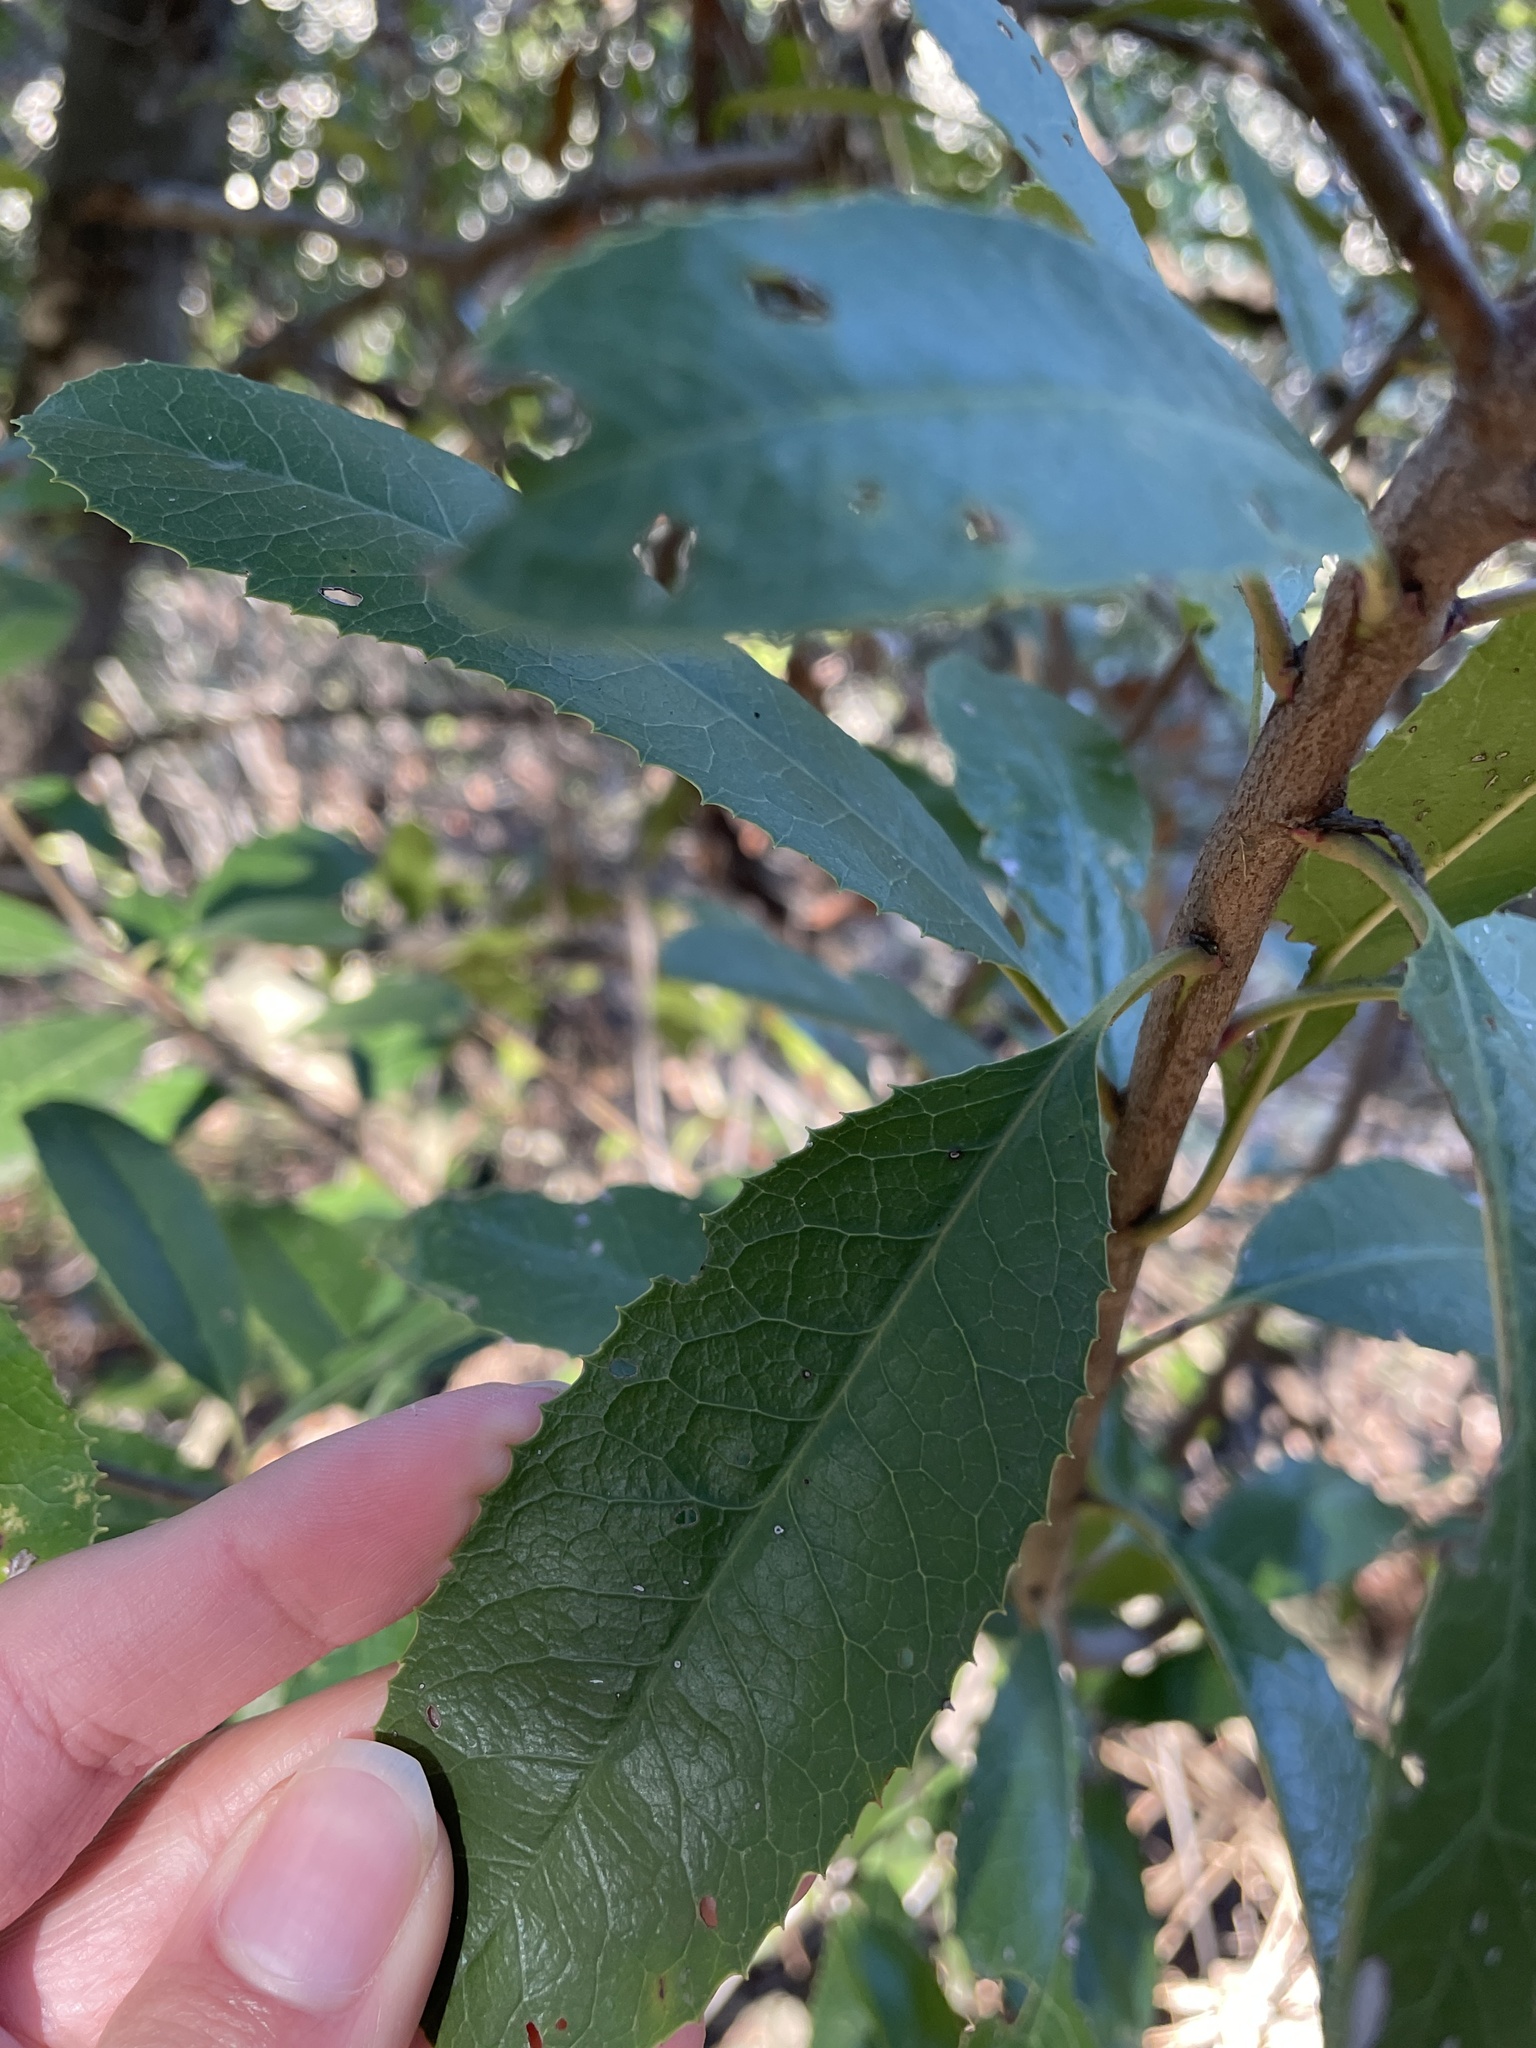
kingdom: Plantae
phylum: Tracheophyta
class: Magnoliopsida
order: Rosales
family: Rosaceae
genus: Heteromeles
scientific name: Heteromeles arbutifolia
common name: California-holly
